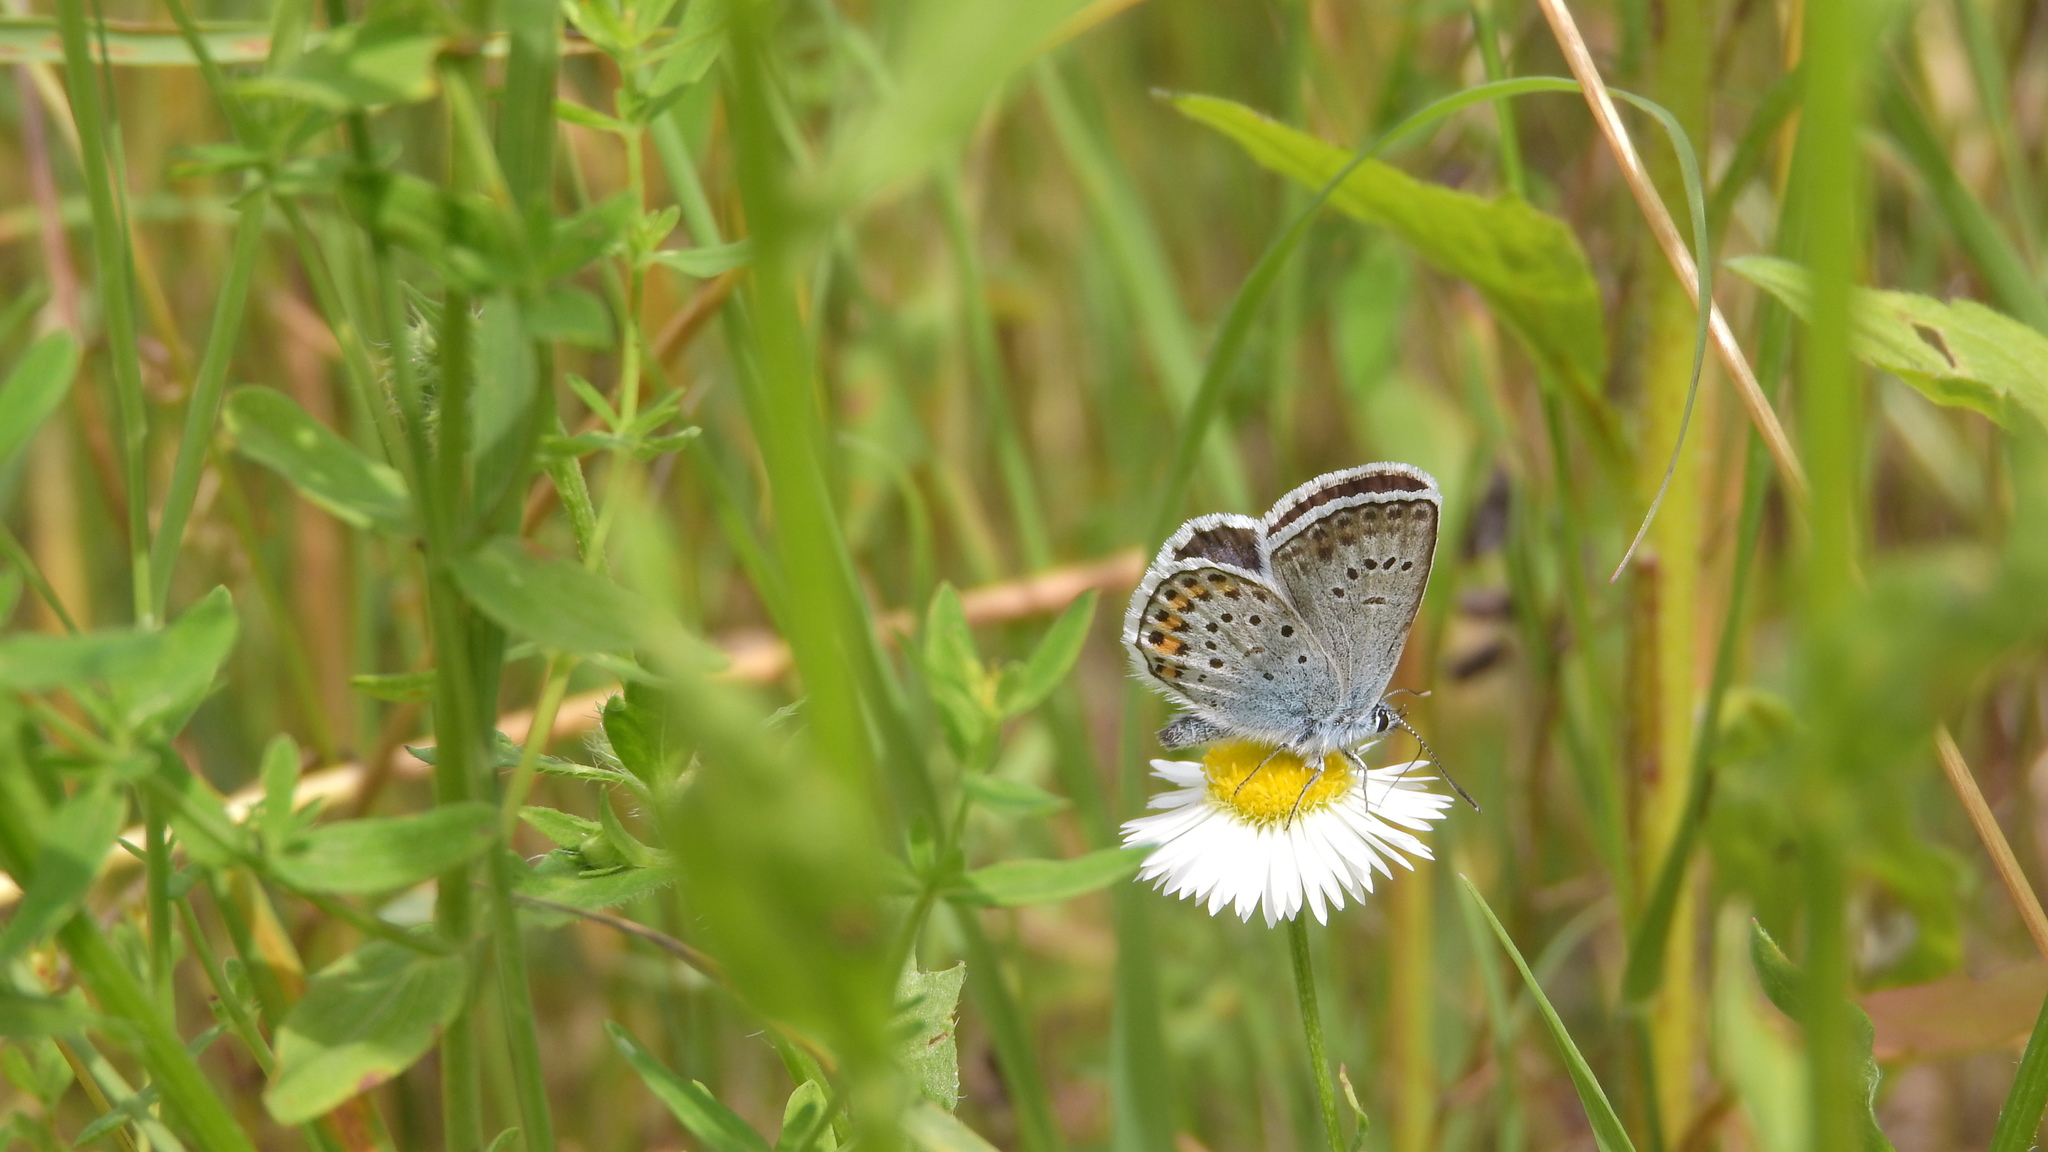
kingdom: Animalia
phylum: Arthropoda
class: Insecta
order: Lepidoptera
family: Lycaenidae
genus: Plebejus
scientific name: Plebejus argus
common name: Silver-studded blue
